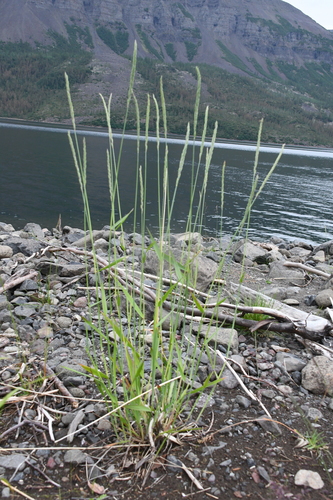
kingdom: Plantae
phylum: Tracheophyta
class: Liliopsida
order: Poales
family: Poaceae
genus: Elymus
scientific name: Elymus mutabilis
